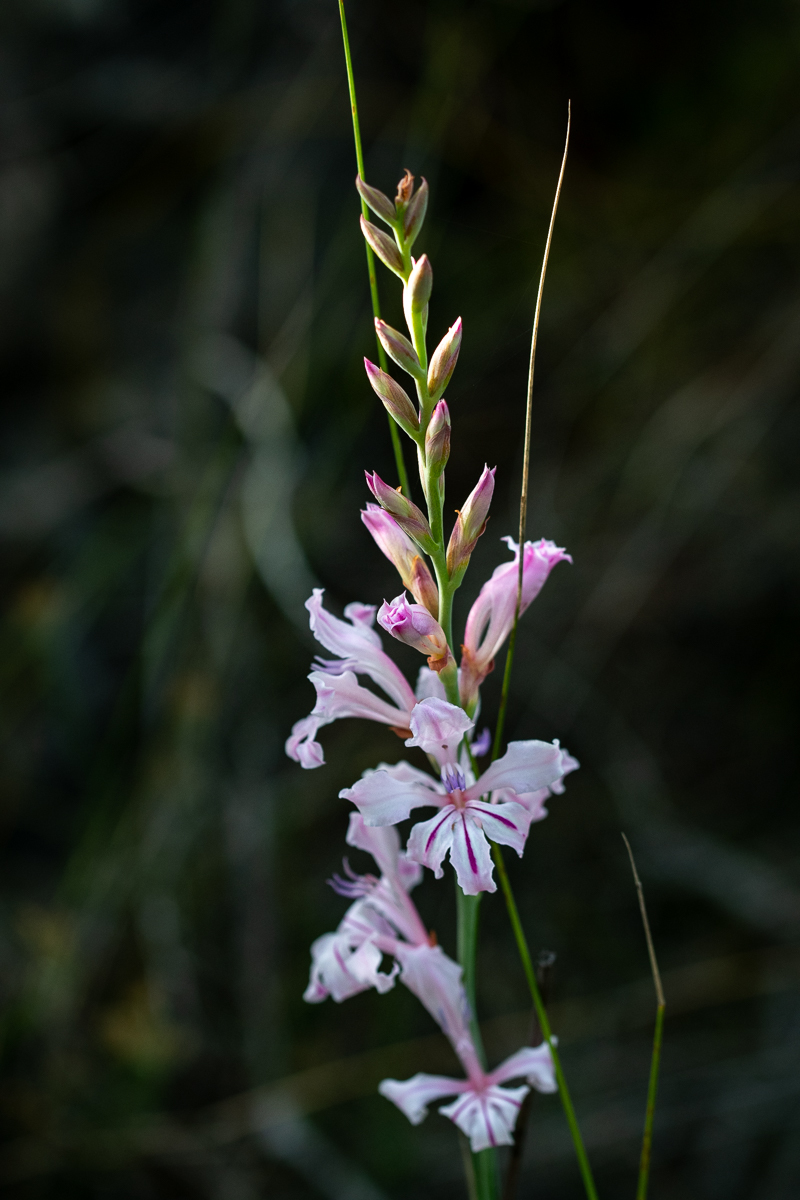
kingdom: Plantae
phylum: Tracheophyta
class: Liliopsida
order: Asparagales
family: Iridaceae
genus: Tritoniopsis
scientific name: Tritoniopsis lata
